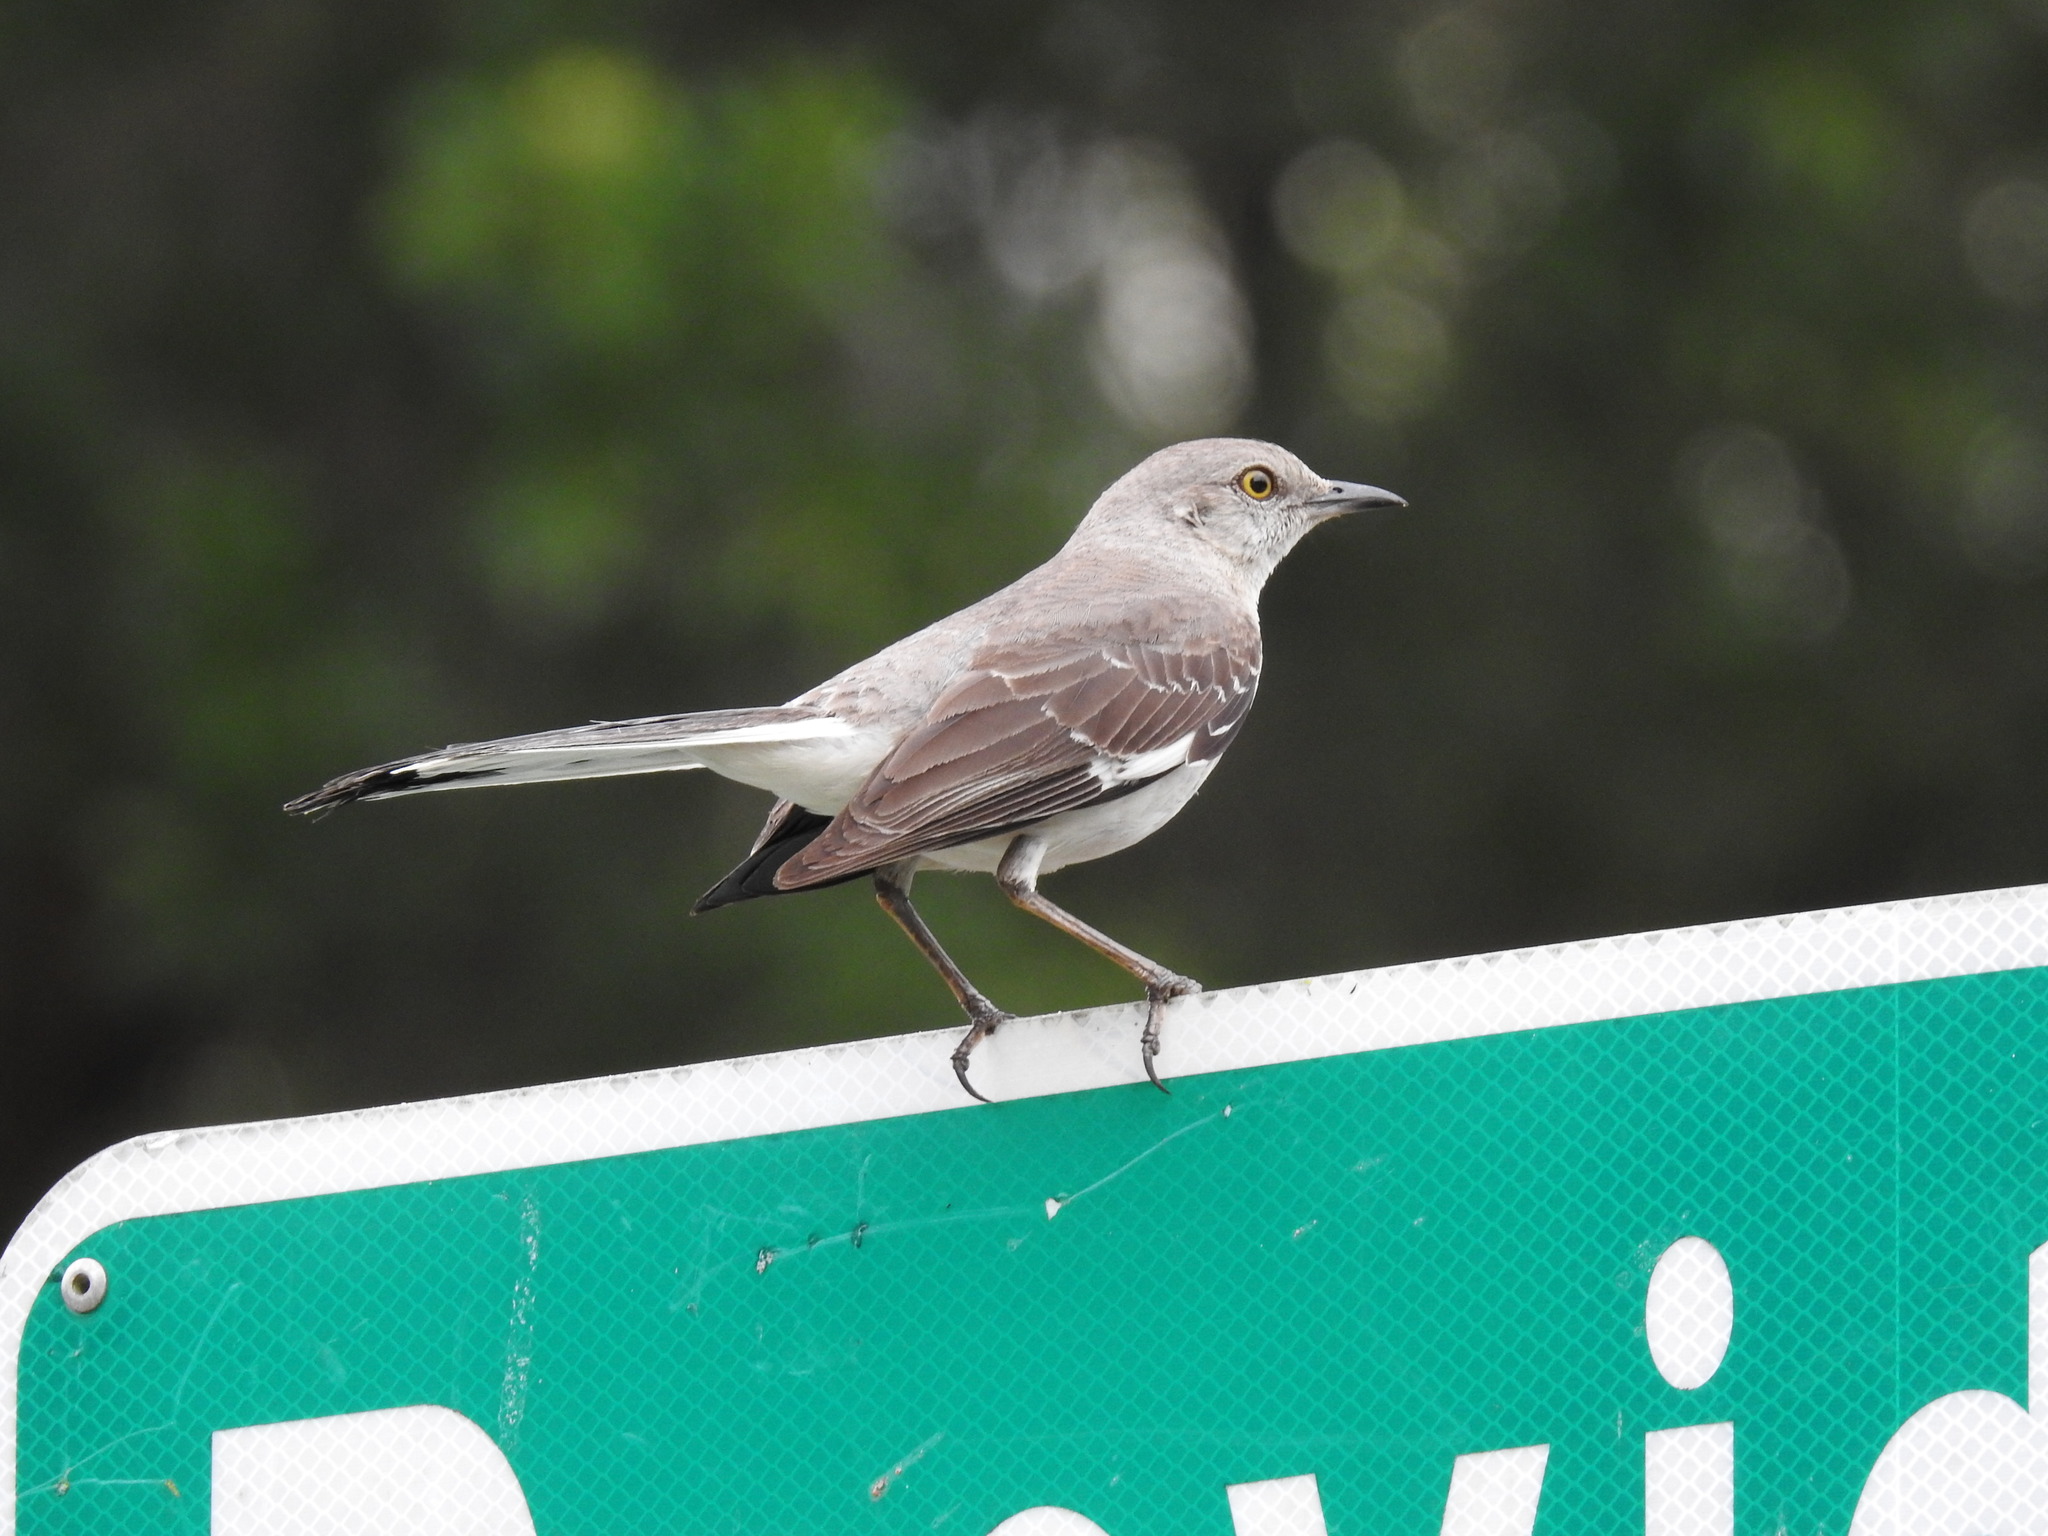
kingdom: Animalia
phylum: Chordata
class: Aves
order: Passeriformes
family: Mimidae
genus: Mimus
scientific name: Mimus polyglottos
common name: Northern mockingbird
